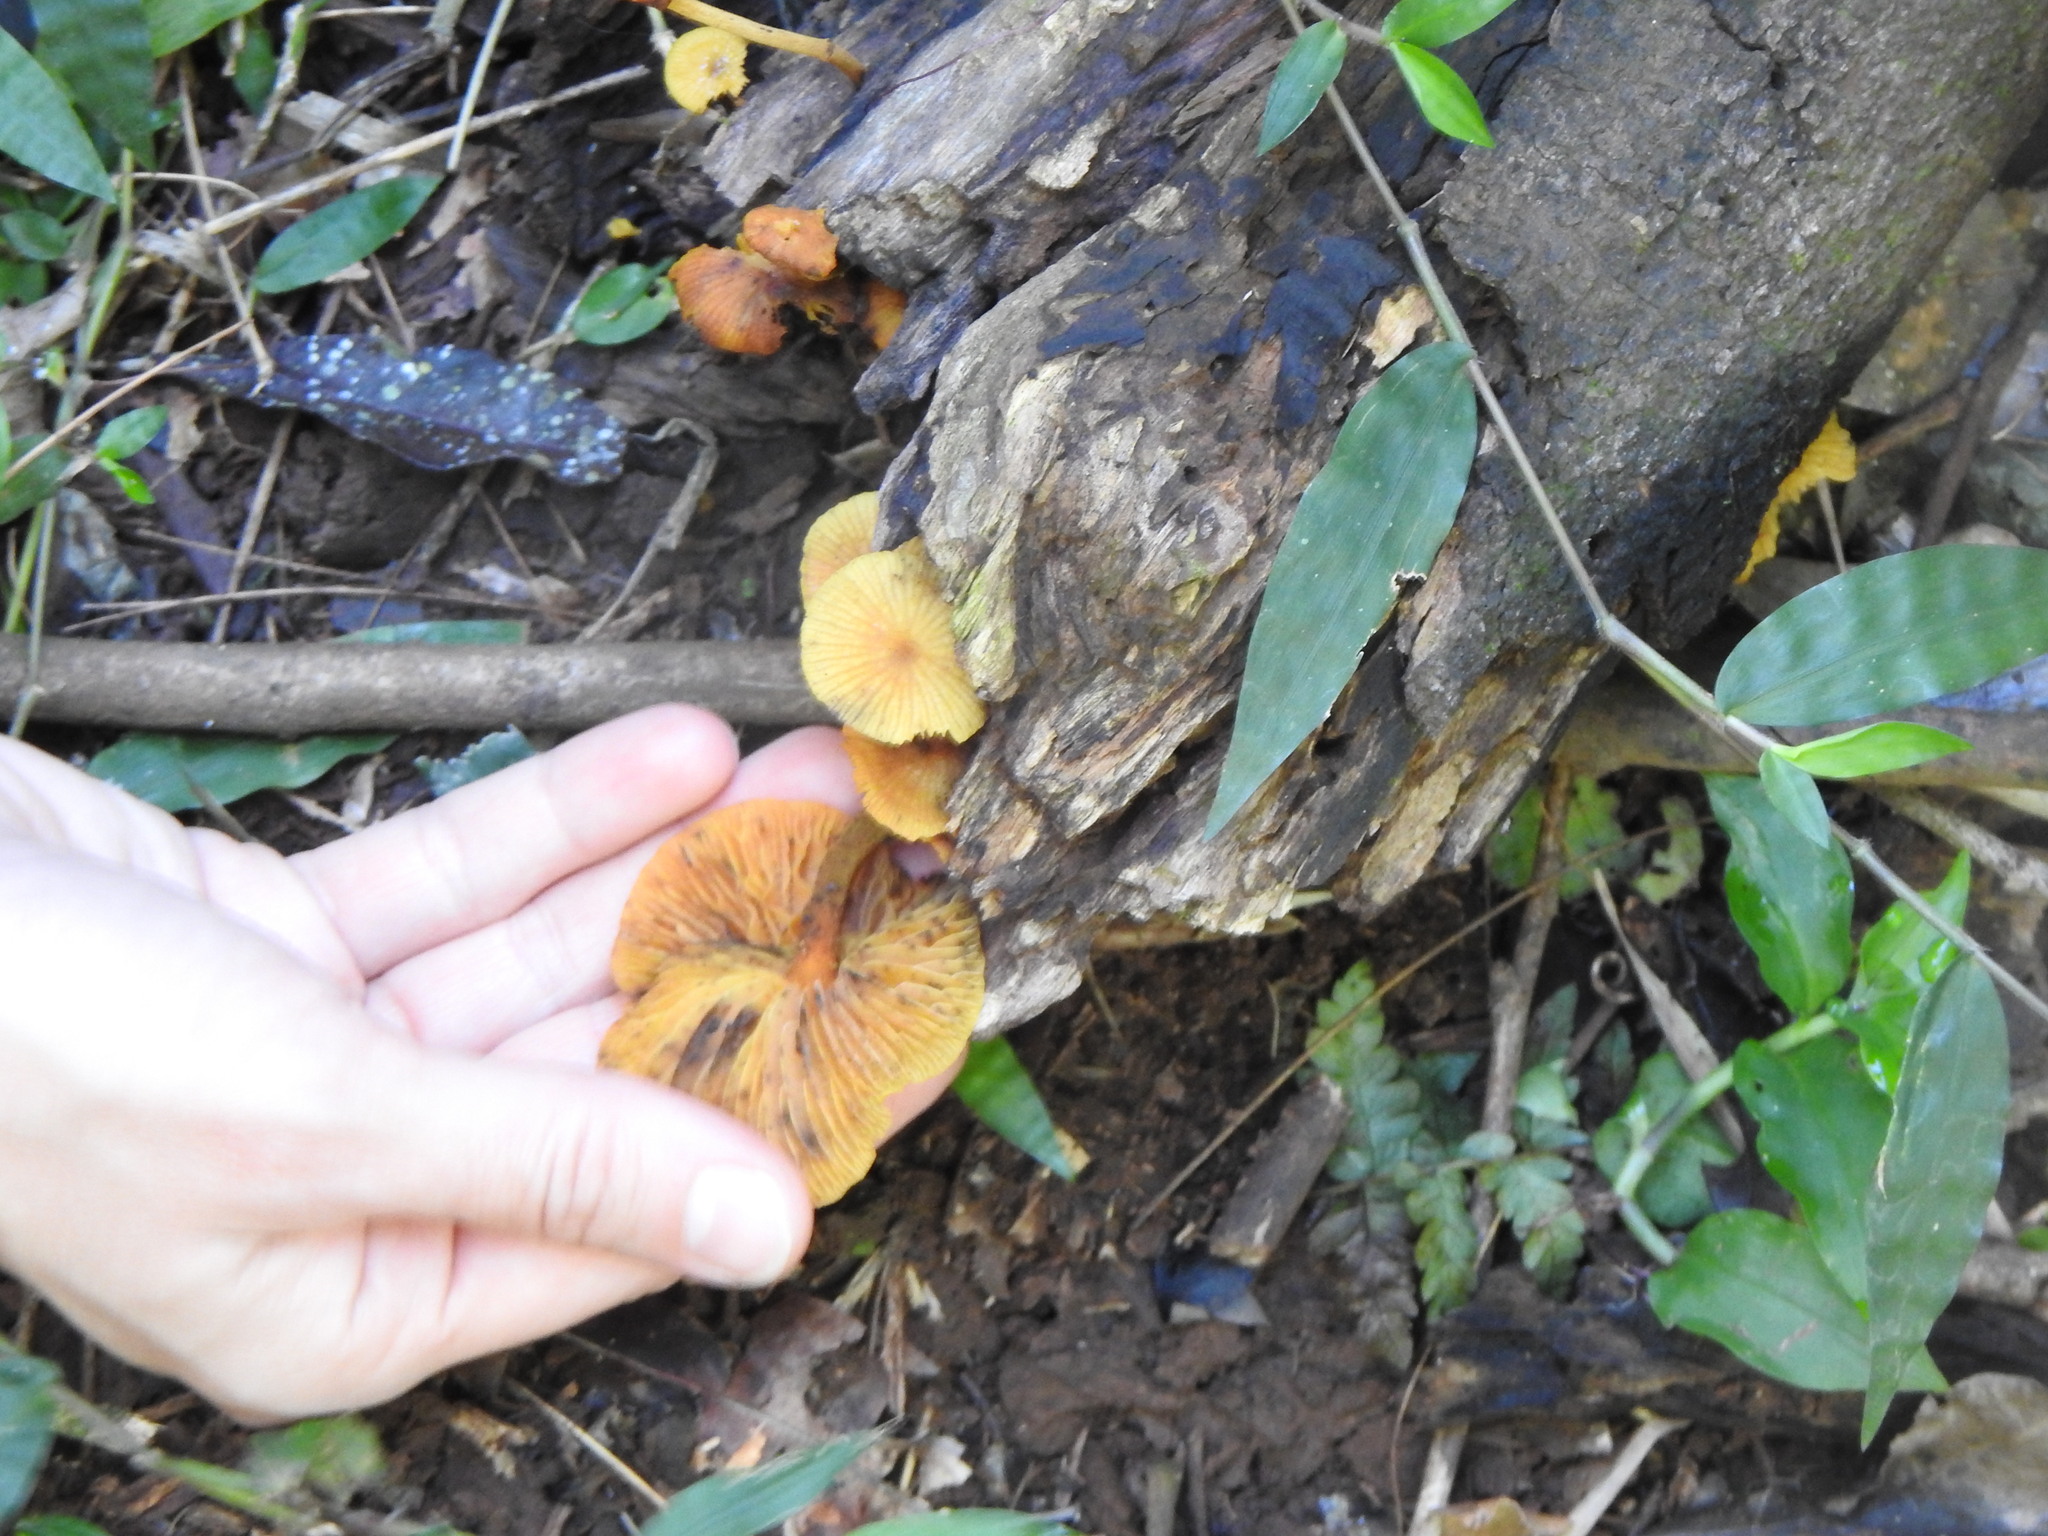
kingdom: Fungi
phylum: Basidiomycota
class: Agaricomycetes
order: Agaricales
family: Mycenaceae
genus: Xeromphalina
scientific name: Xeromphalina tenuipes
